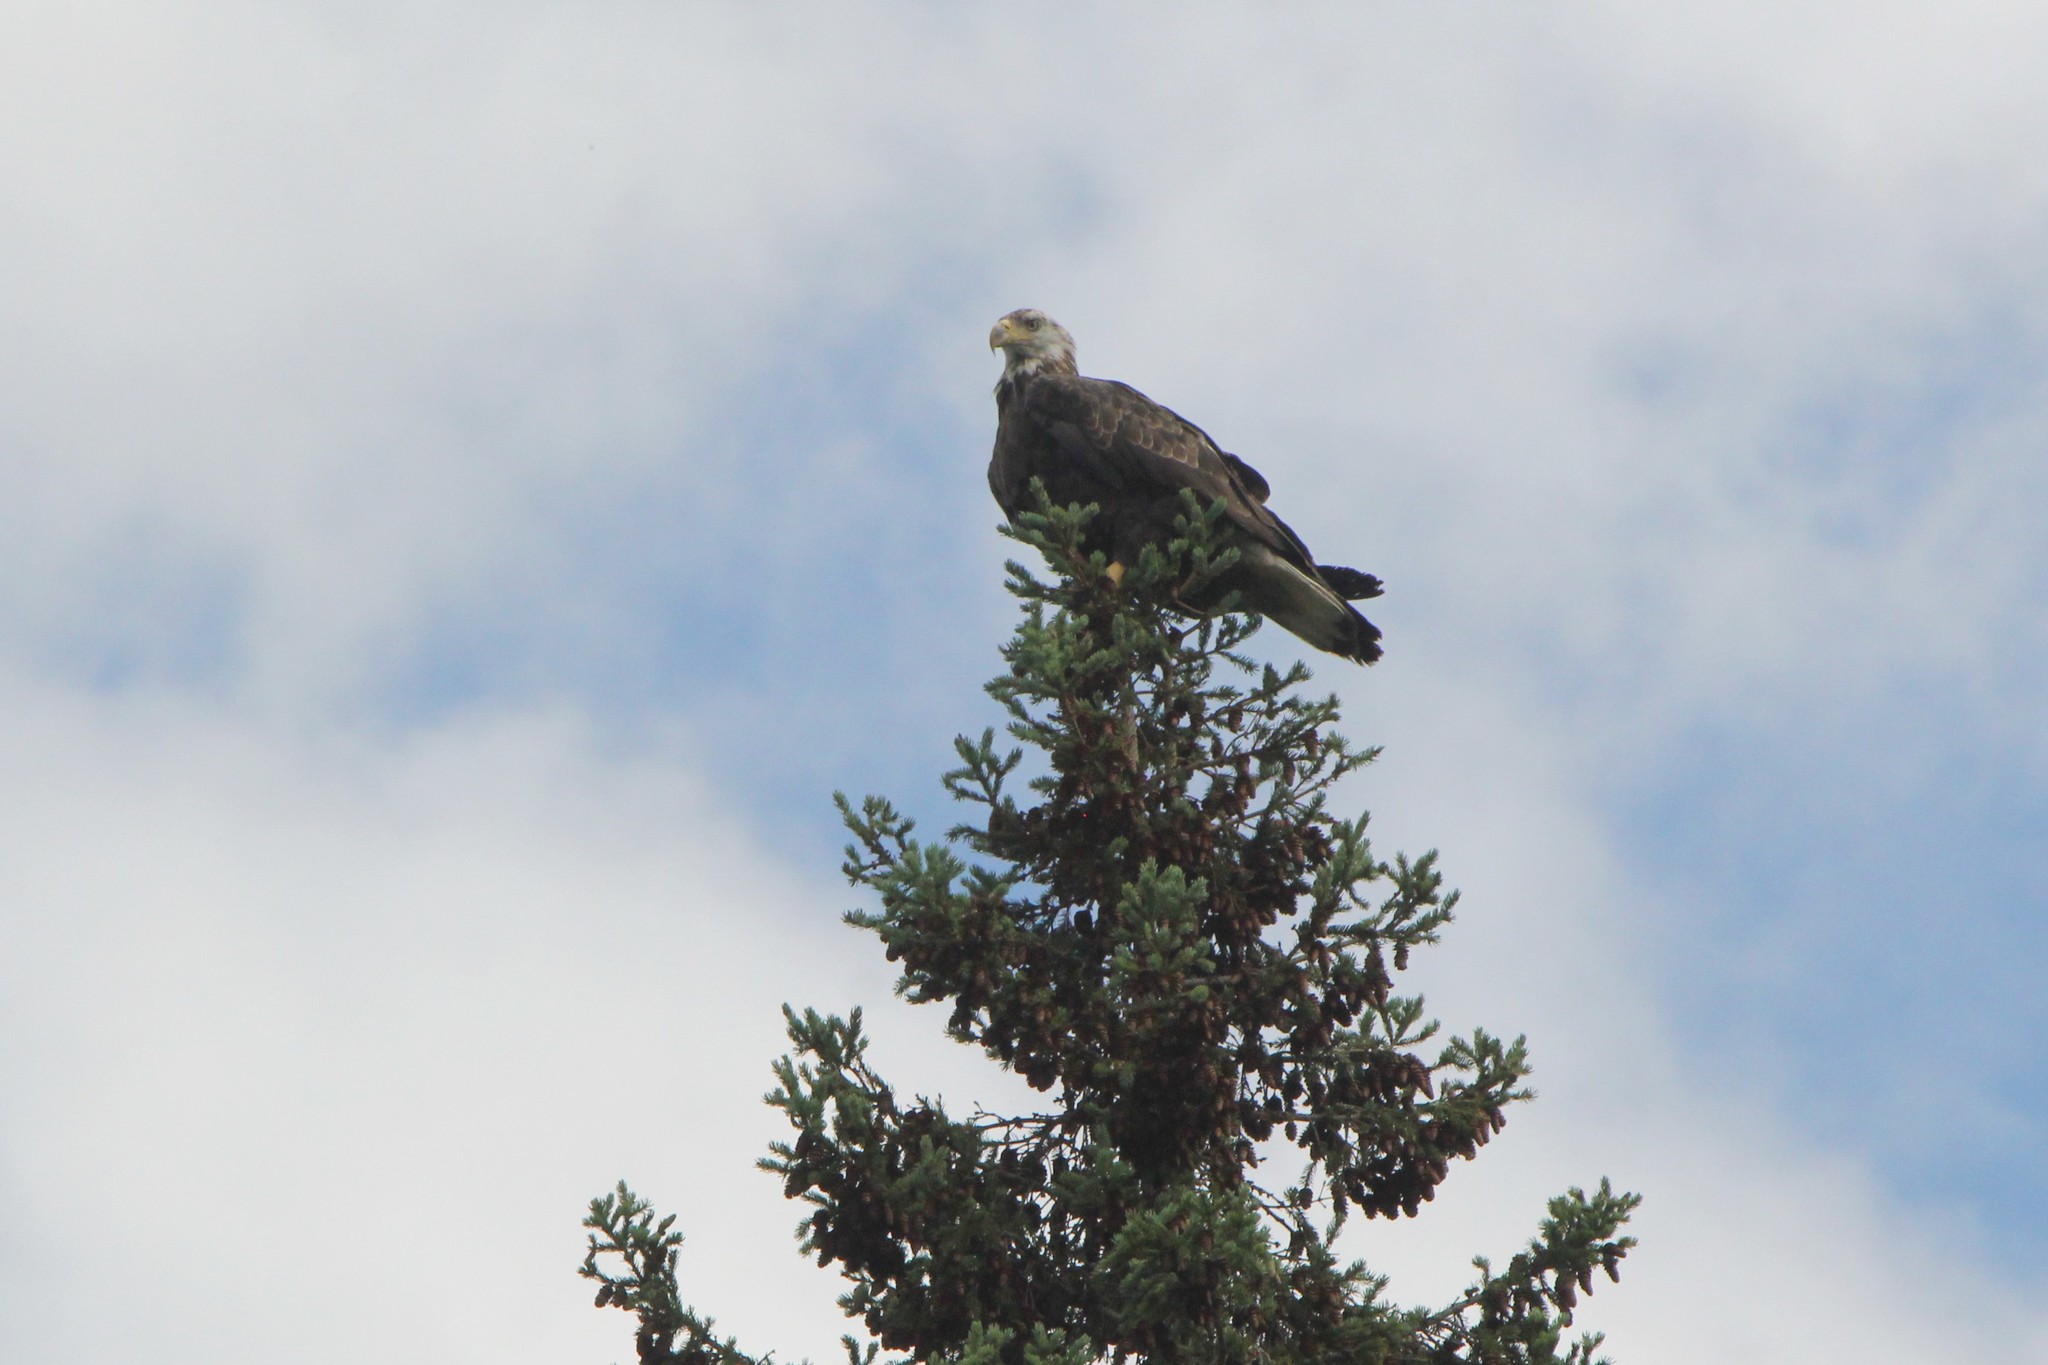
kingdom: Animalia
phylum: Chordata
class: Aves
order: Accipitriformes
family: Accipitridae
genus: Haliaeetus
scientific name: Haliaeetus leucocephalus
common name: Bald eagle
